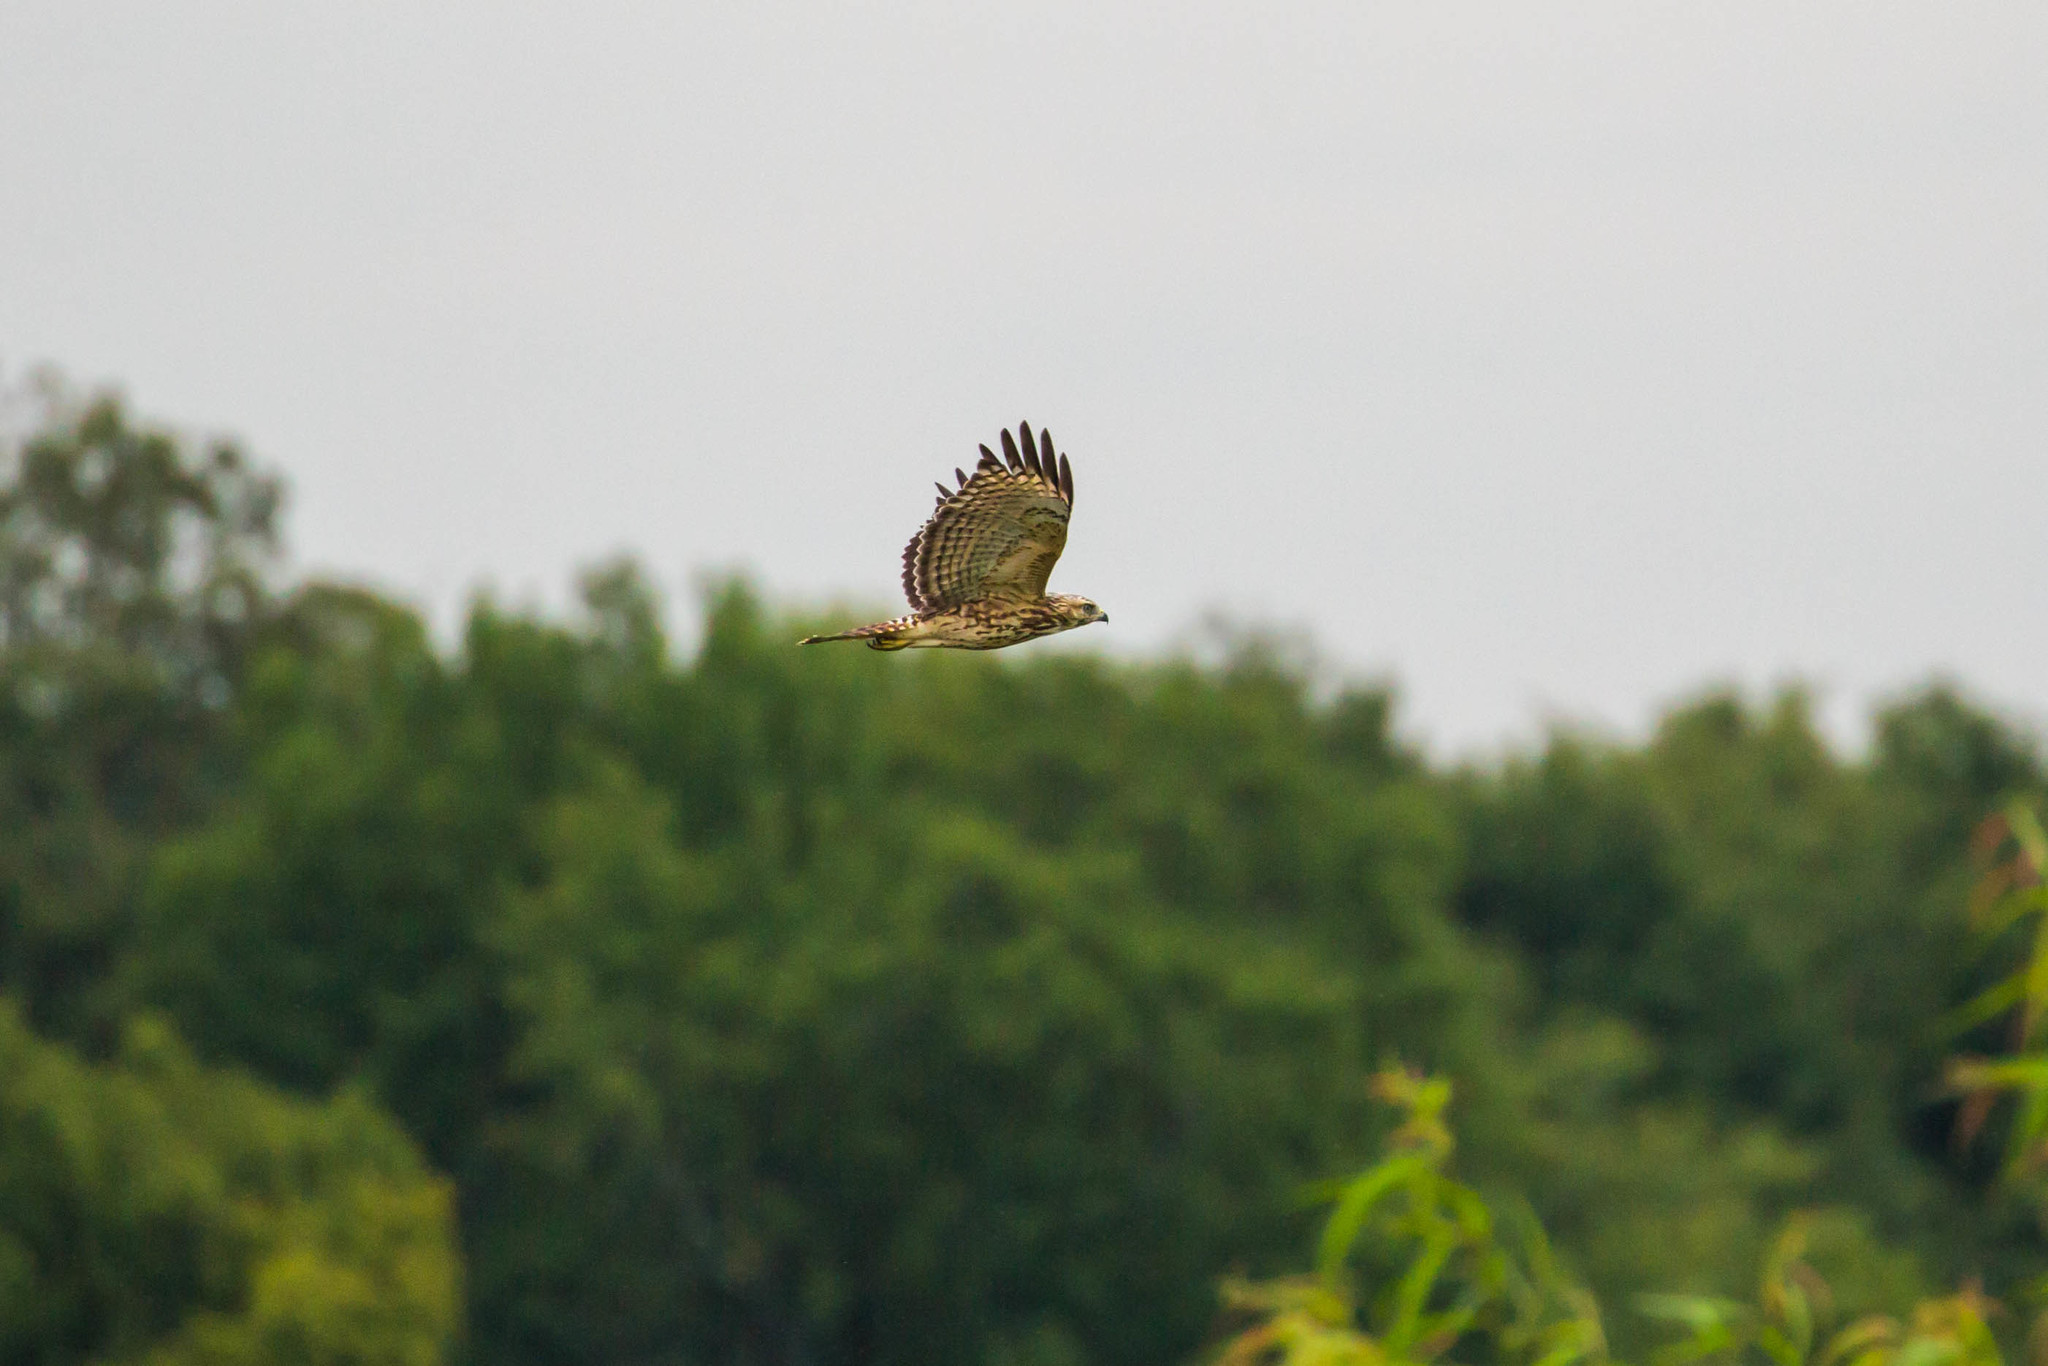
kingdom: Animalia
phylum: Chordata
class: Aves
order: Accipitriformes
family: Accipitridae
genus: Buteo
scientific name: Buteo lineatus
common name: Red-shouldered hawk
